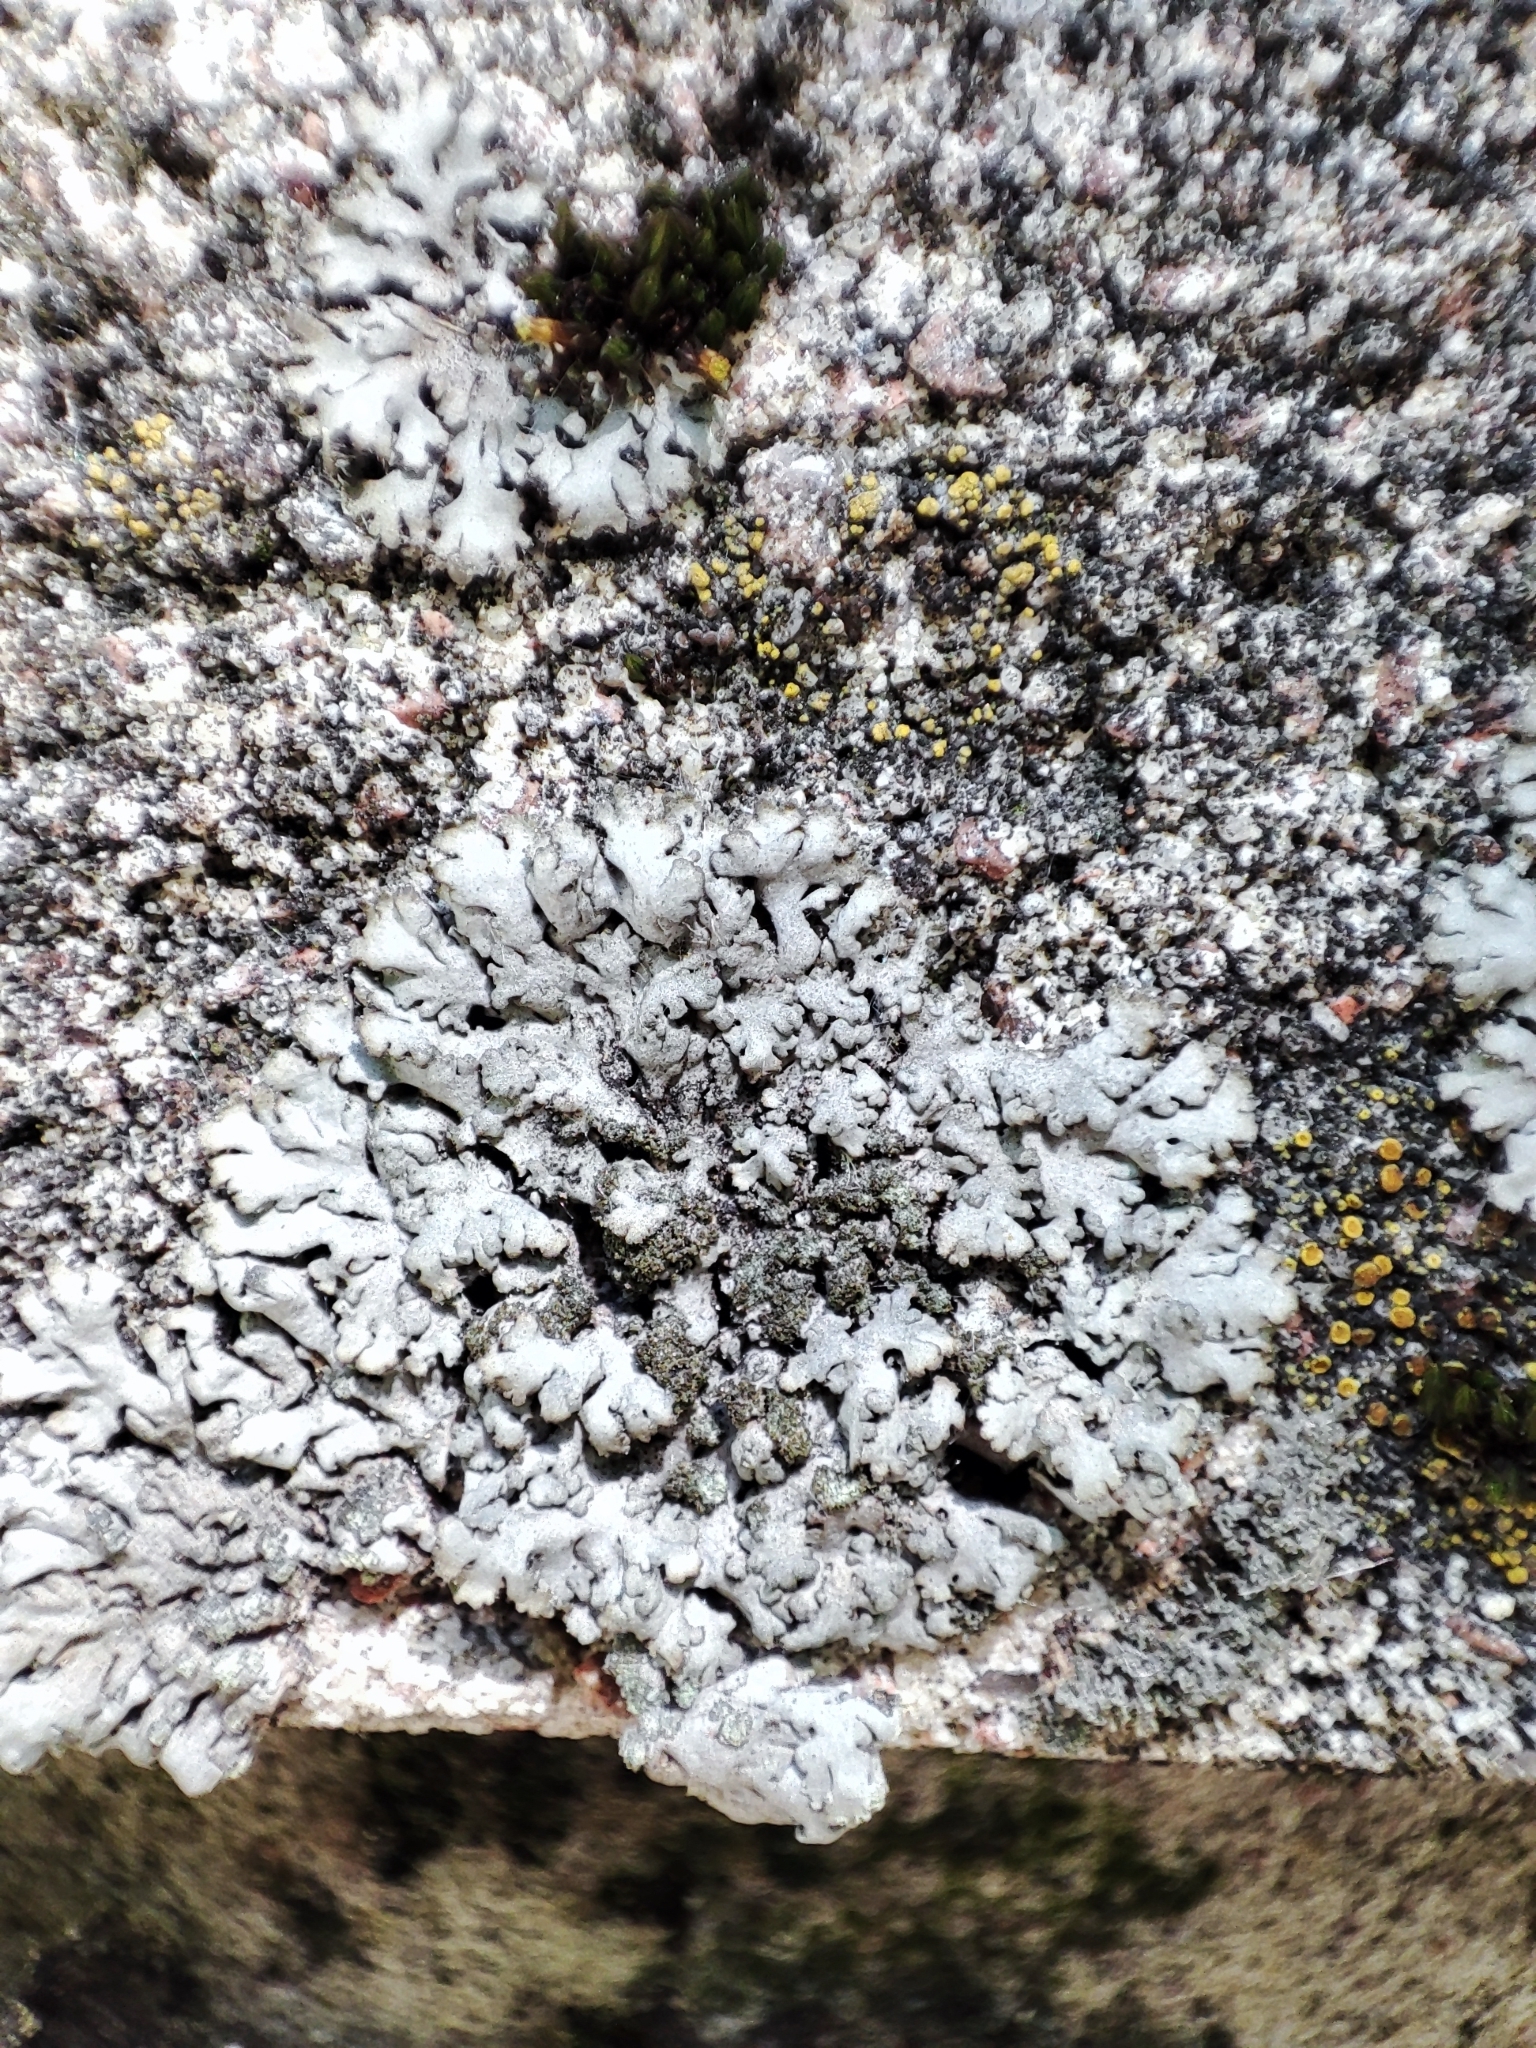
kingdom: Fungi
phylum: Ascomycota
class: Lecanoromycetes
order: Caliciales
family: Physciaceae
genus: Phaeophyscia
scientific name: Phaeophyscia orbicularis
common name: Mealy shadow lichen
